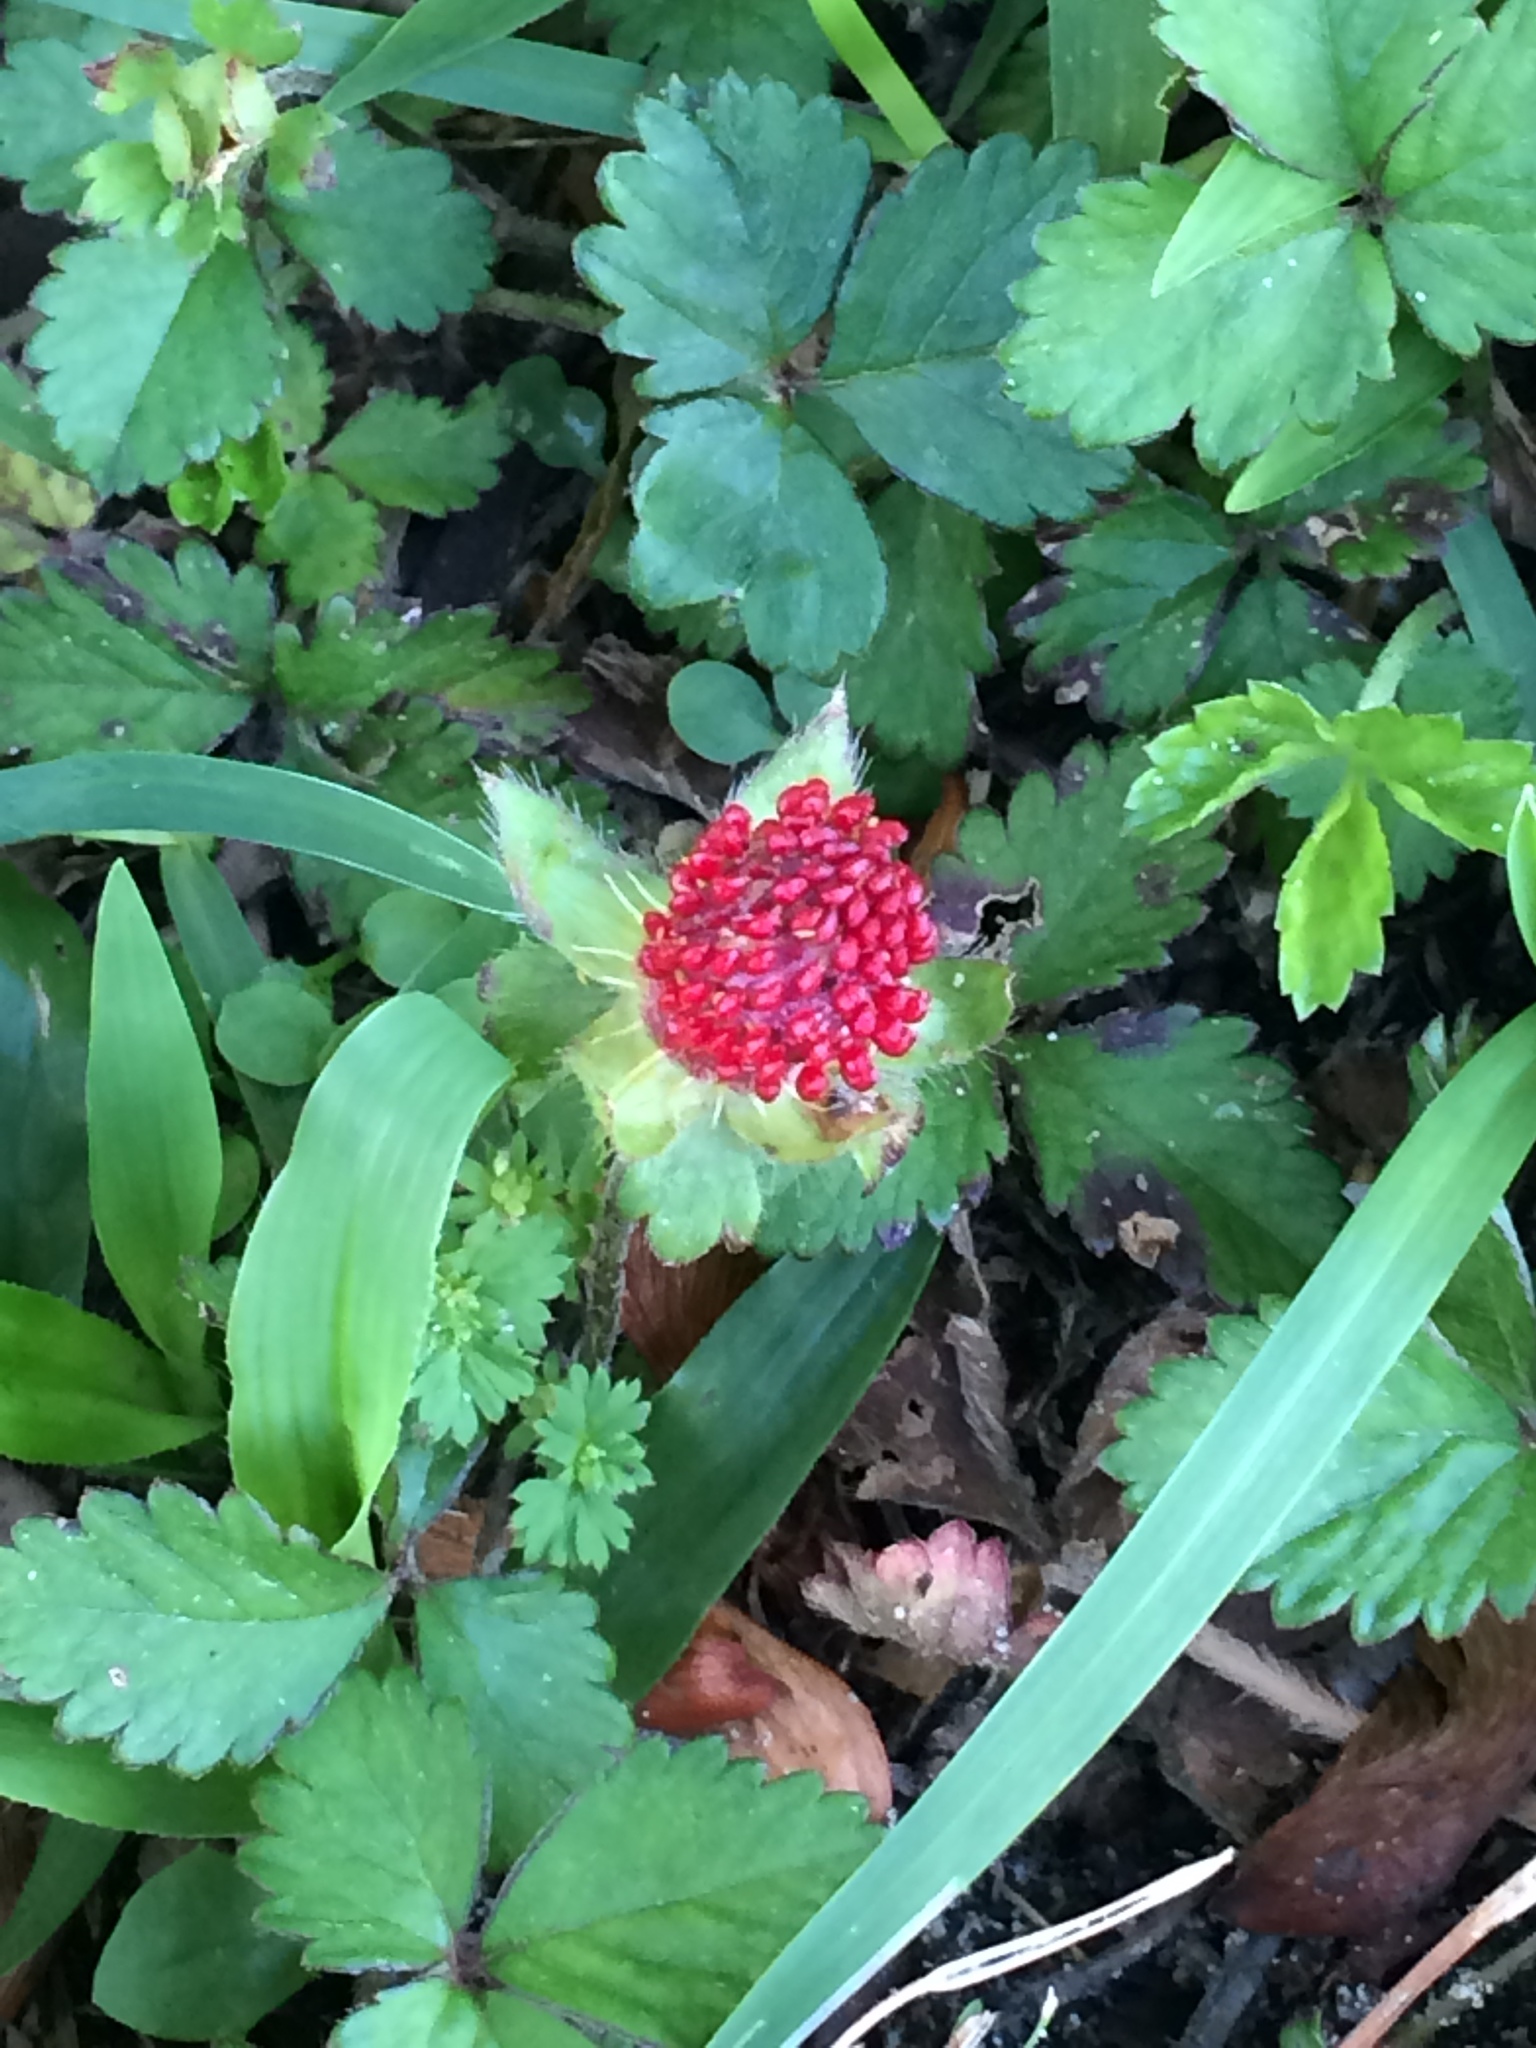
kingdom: Plantae
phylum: Tracheophyta
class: Magnoliopsida
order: Rosales
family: Rosaceae
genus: Potentilla
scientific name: Potentilla indica
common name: Yellow-flowered strawberry
